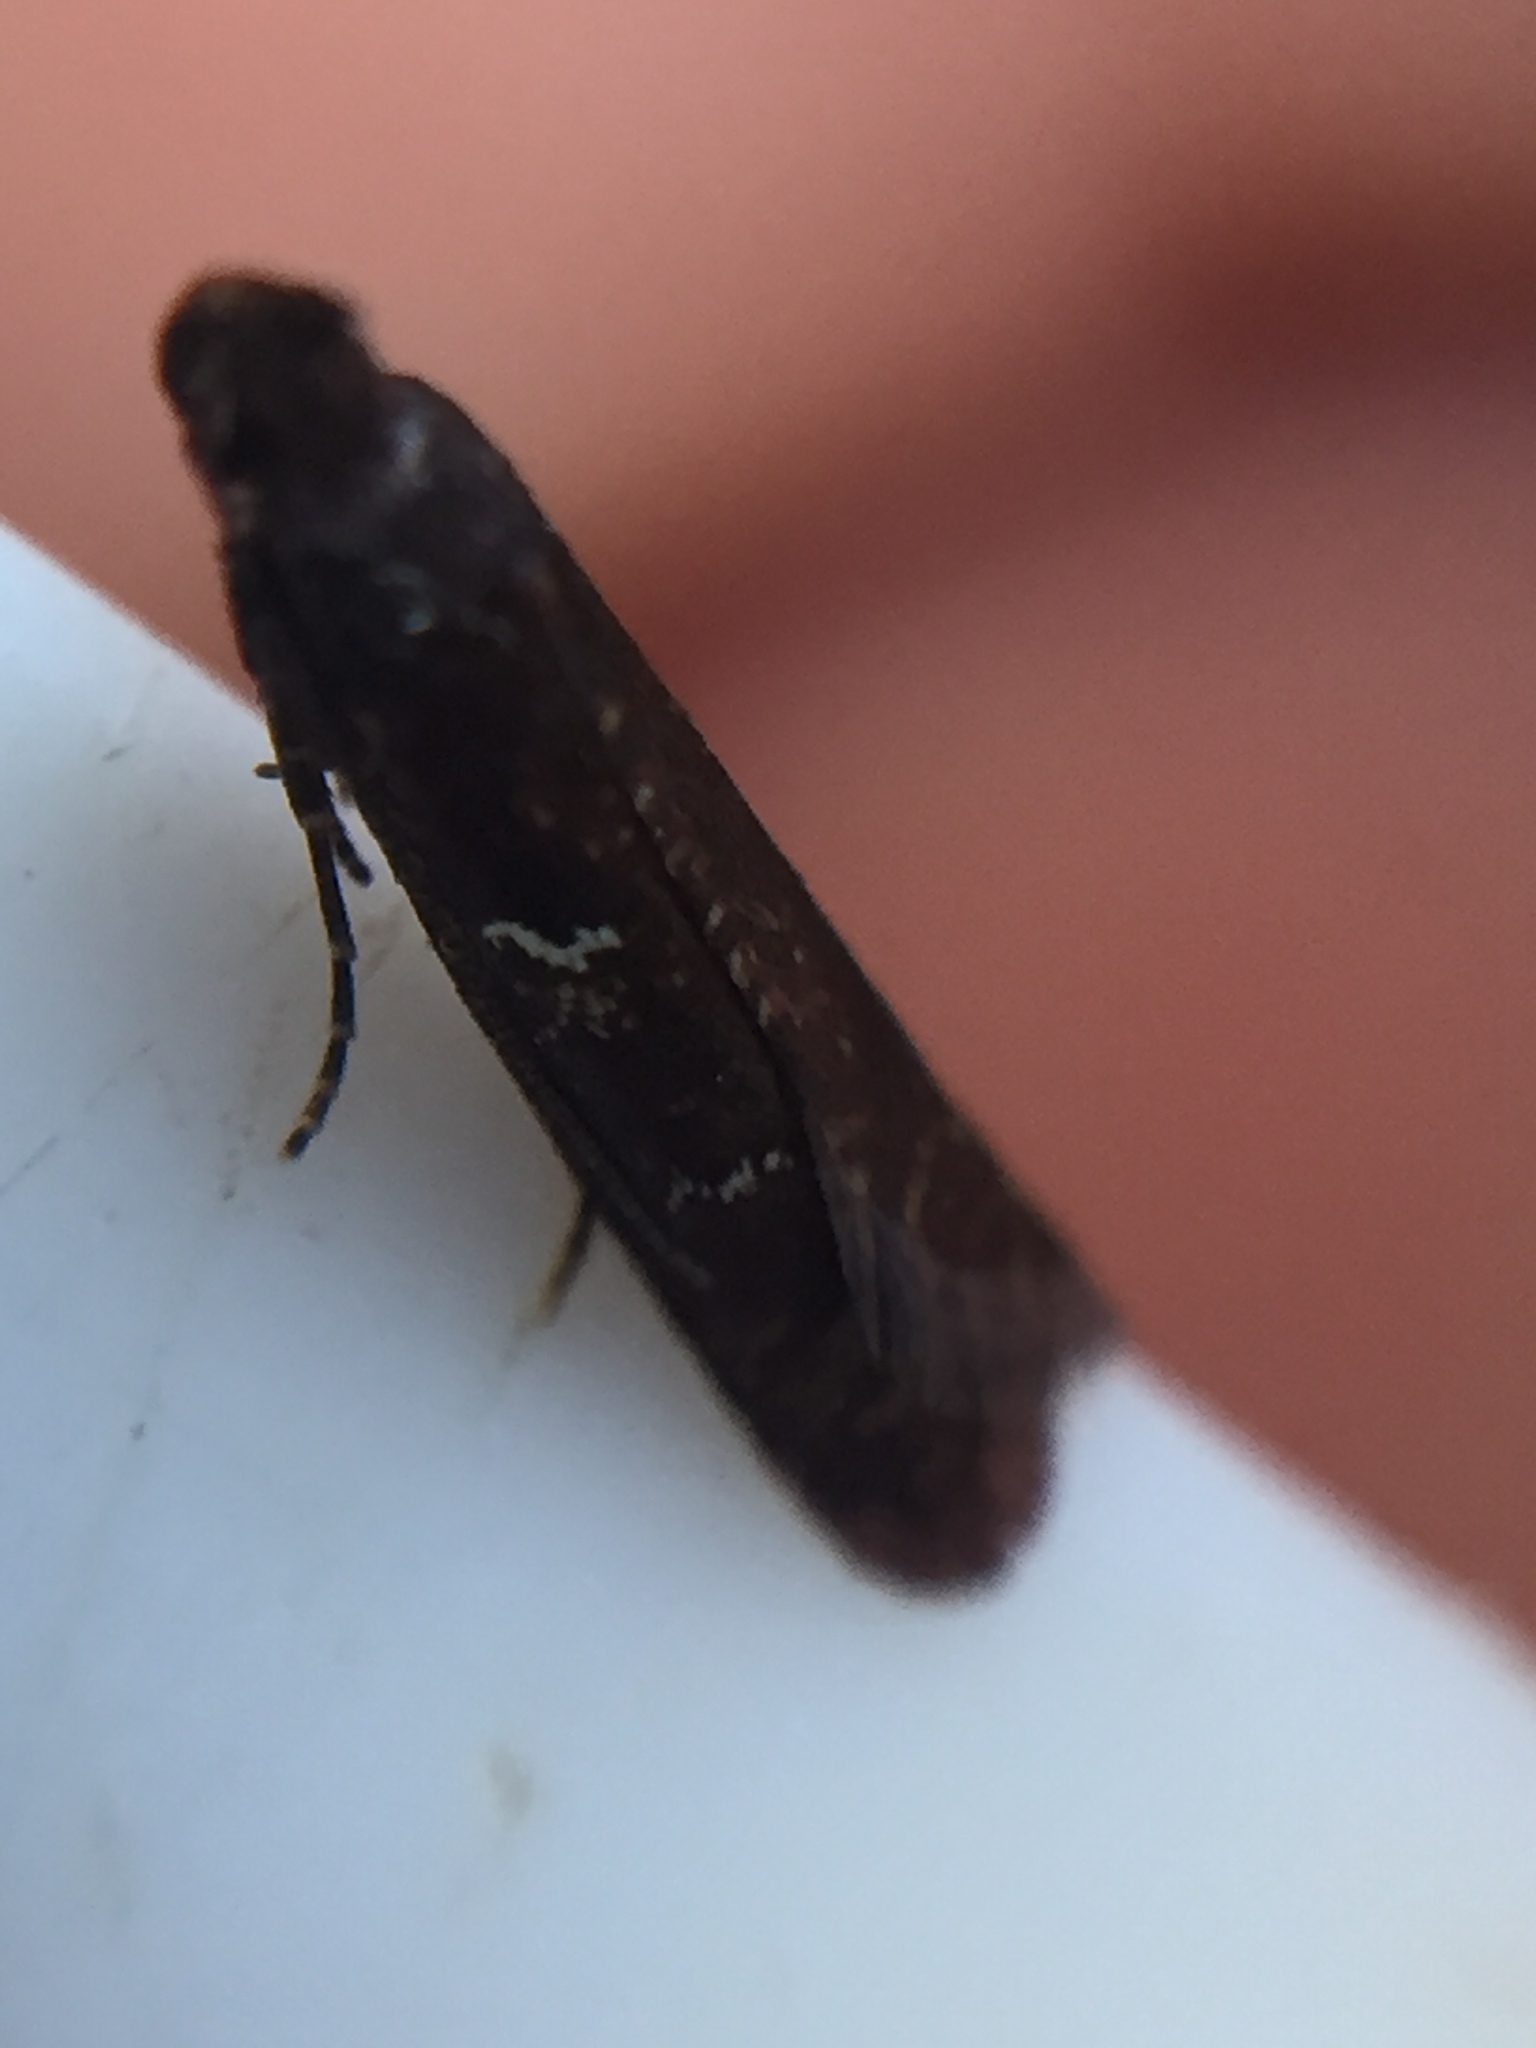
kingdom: Animalia
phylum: Arthropoda
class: Insecta
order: Lepidoptera
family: Plutellidae
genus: Cadmogenes
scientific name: Cadmogenes literata
